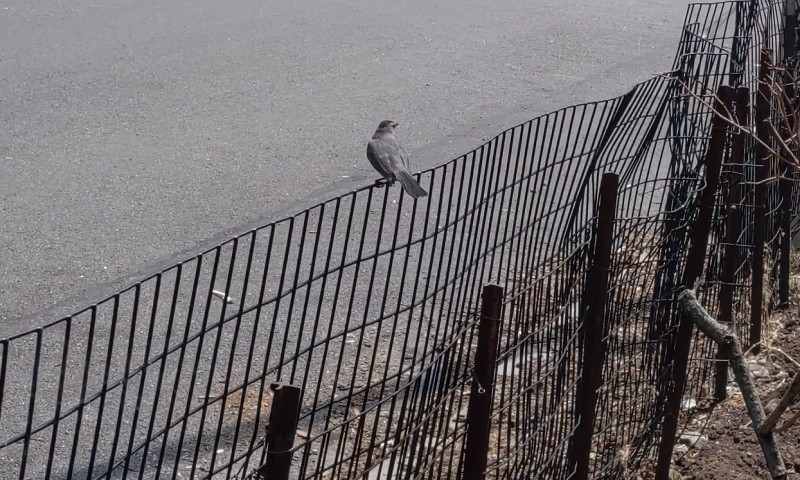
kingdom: Animalia
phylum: Chordata
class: Aves
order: Passeriformes
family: Mimidae
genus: Dumetella
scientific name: Dumetella carolinensis
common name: Gray catbird
